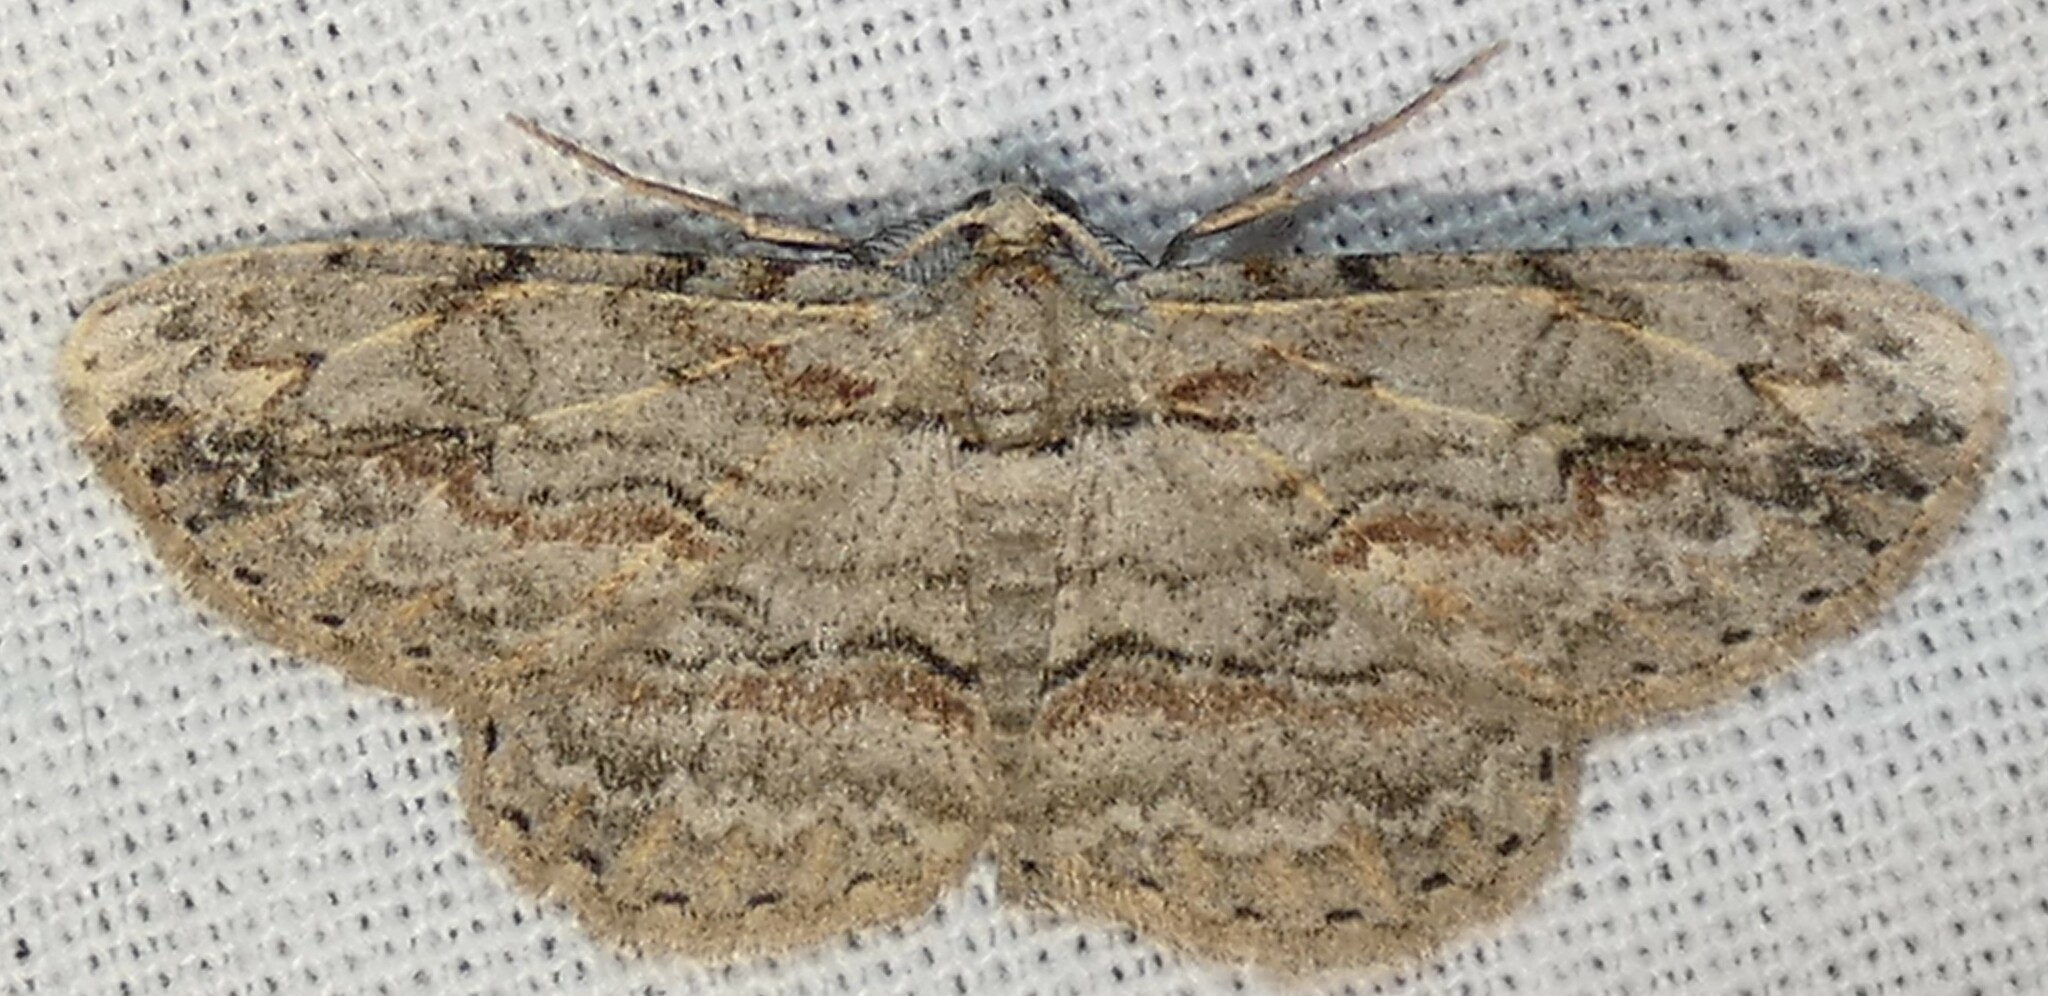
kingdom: Animalia
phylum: Arthropoda
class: Insecta
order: Lepidoptera
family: Geometridae
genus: Iridopsis
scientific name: Iridopsis defectaria
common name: Brown-shaded gray
